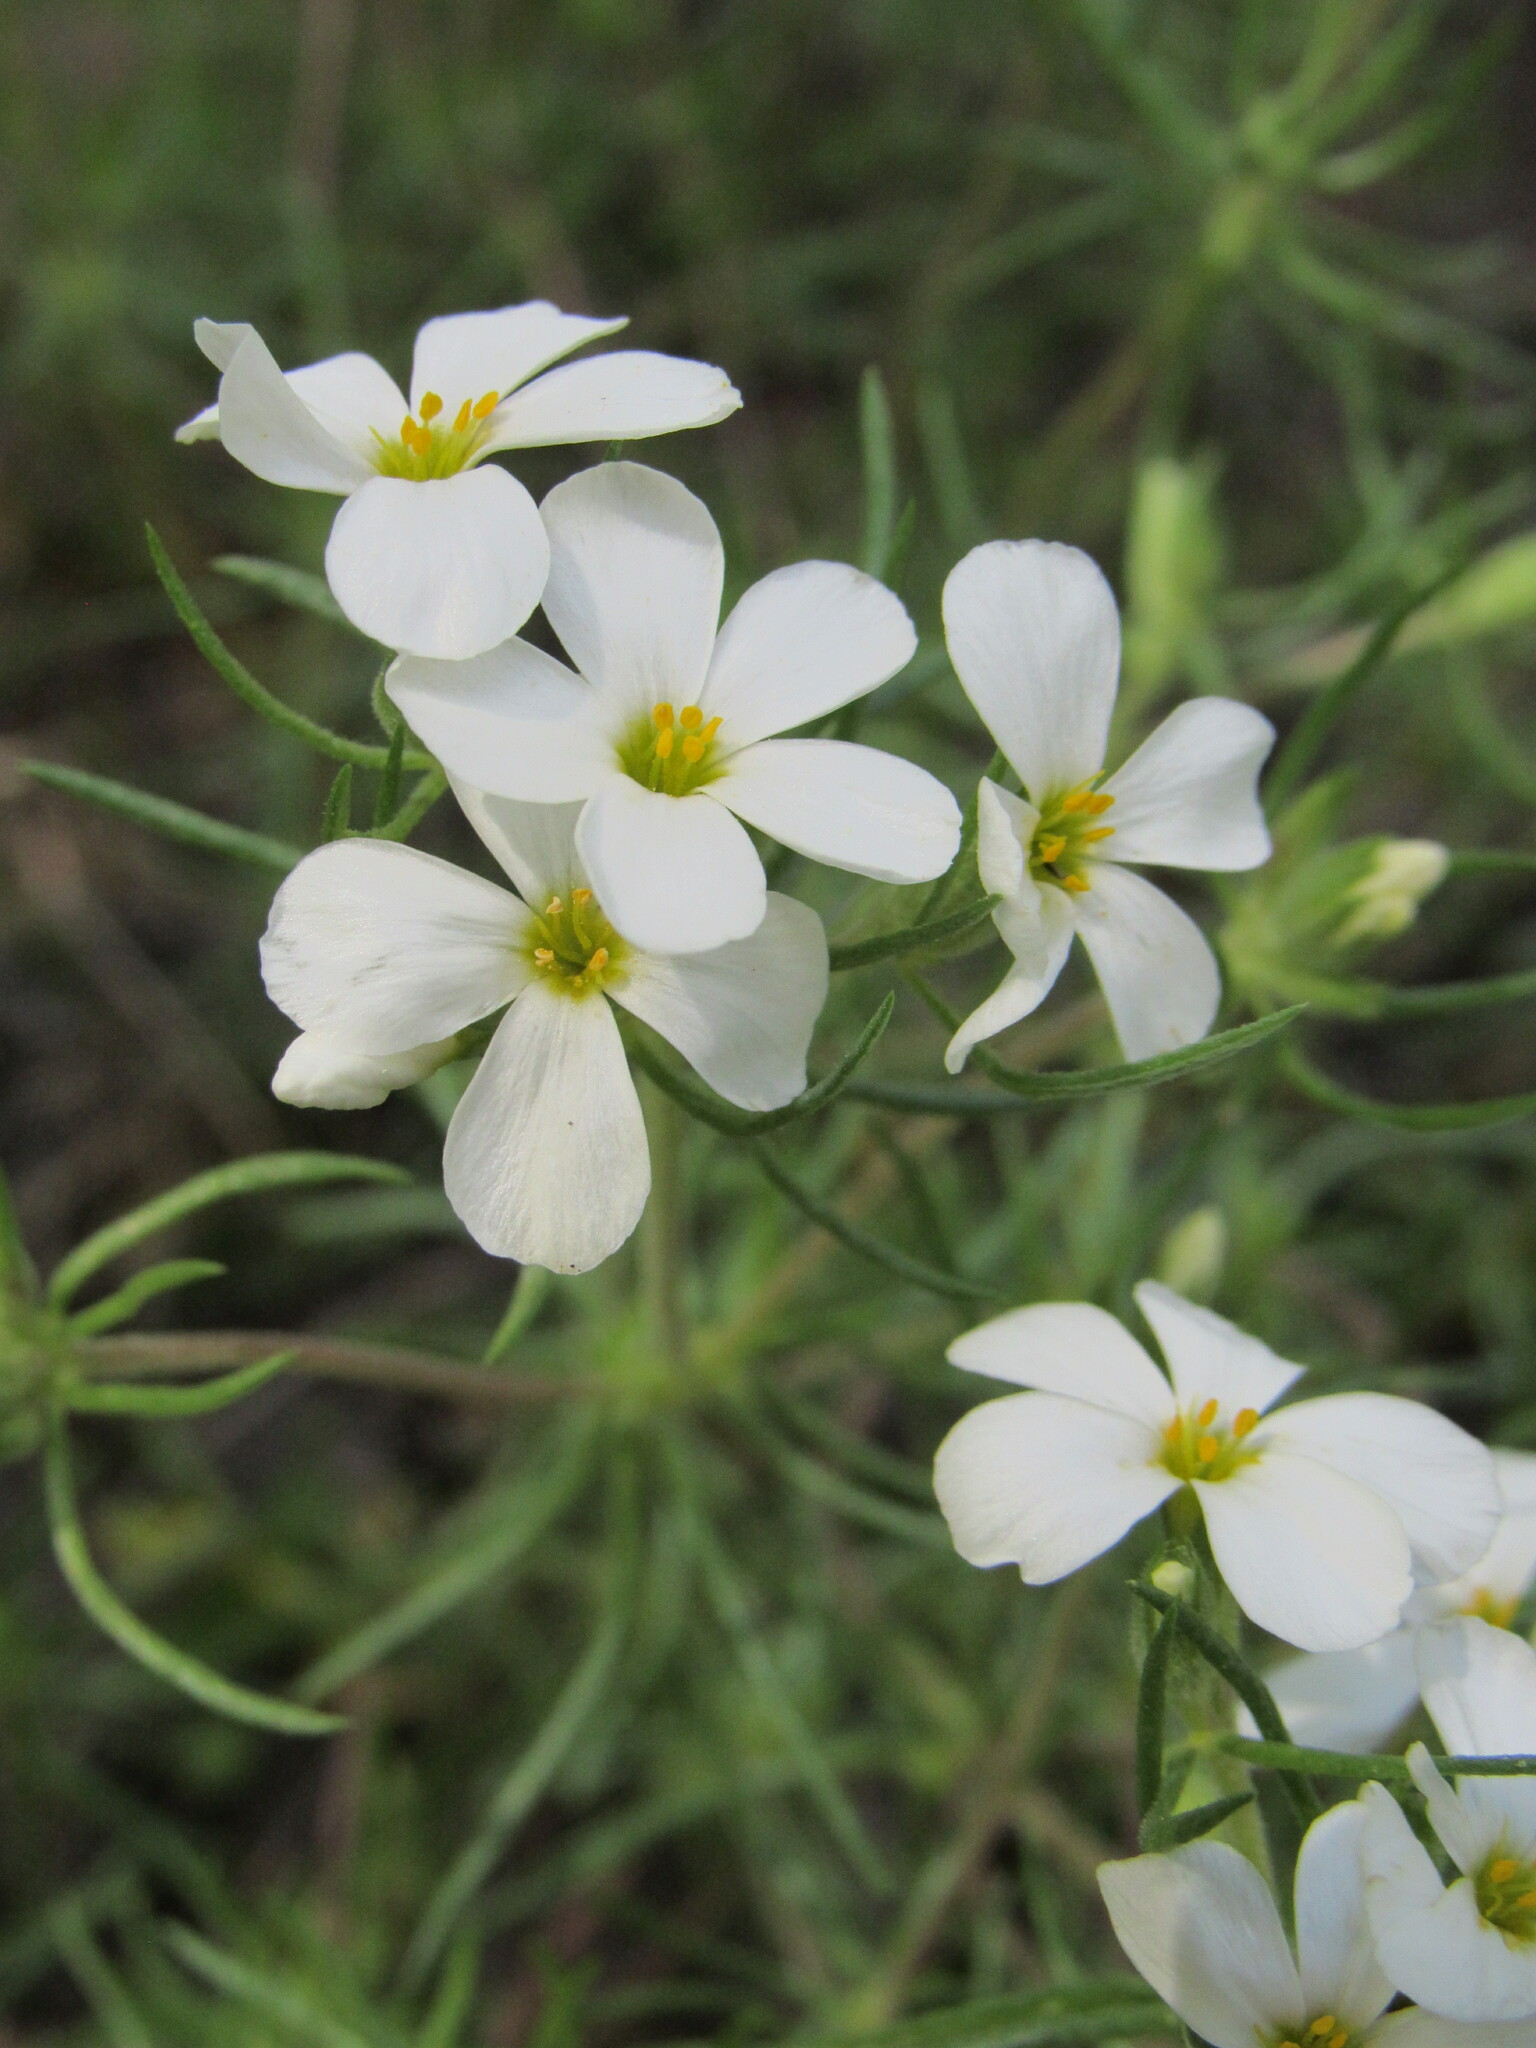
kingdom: Plantae
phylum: Tracheophyta
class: Magnoliopsida
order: Ericales
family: Polemoniaceae
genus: Leptosiphon
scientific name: Leptosiphon nuttallii
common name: Nuttall's linanthus
